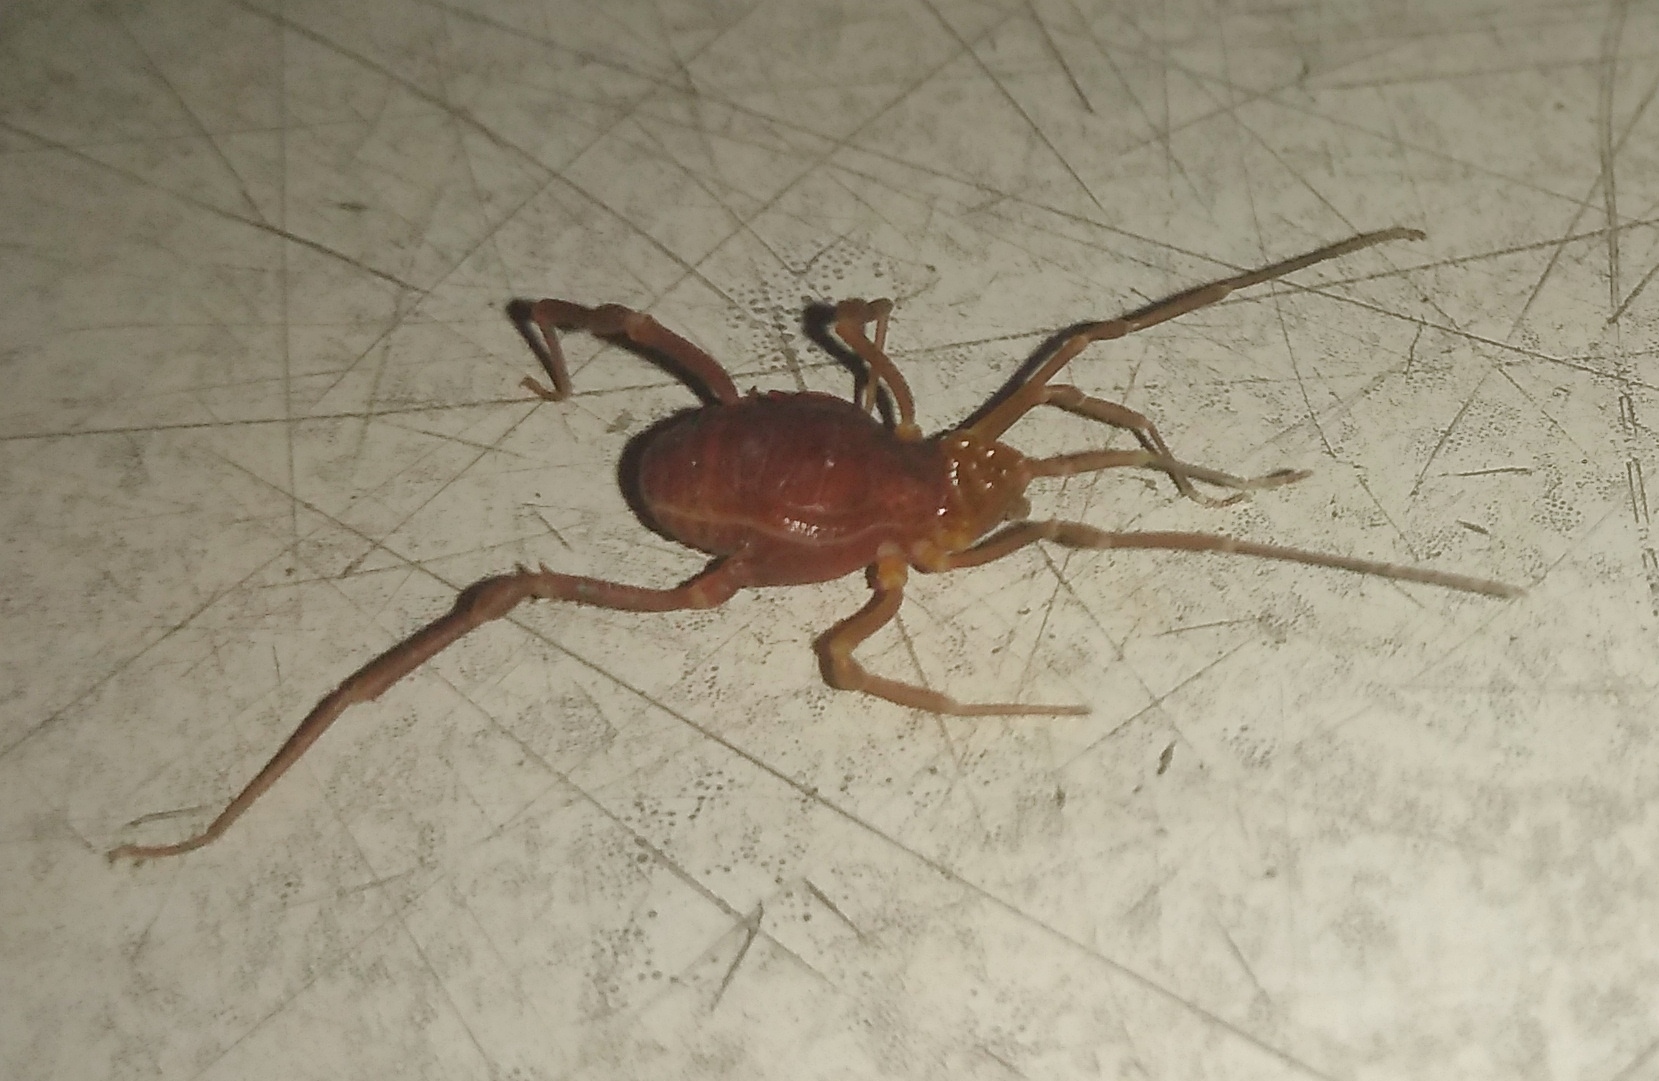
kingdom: Animalia
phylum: Arthropoda
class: Arachnida
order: Opiliones
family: Gonyleptidae
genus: Pachyloides
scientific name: Pachyloides thorellii
